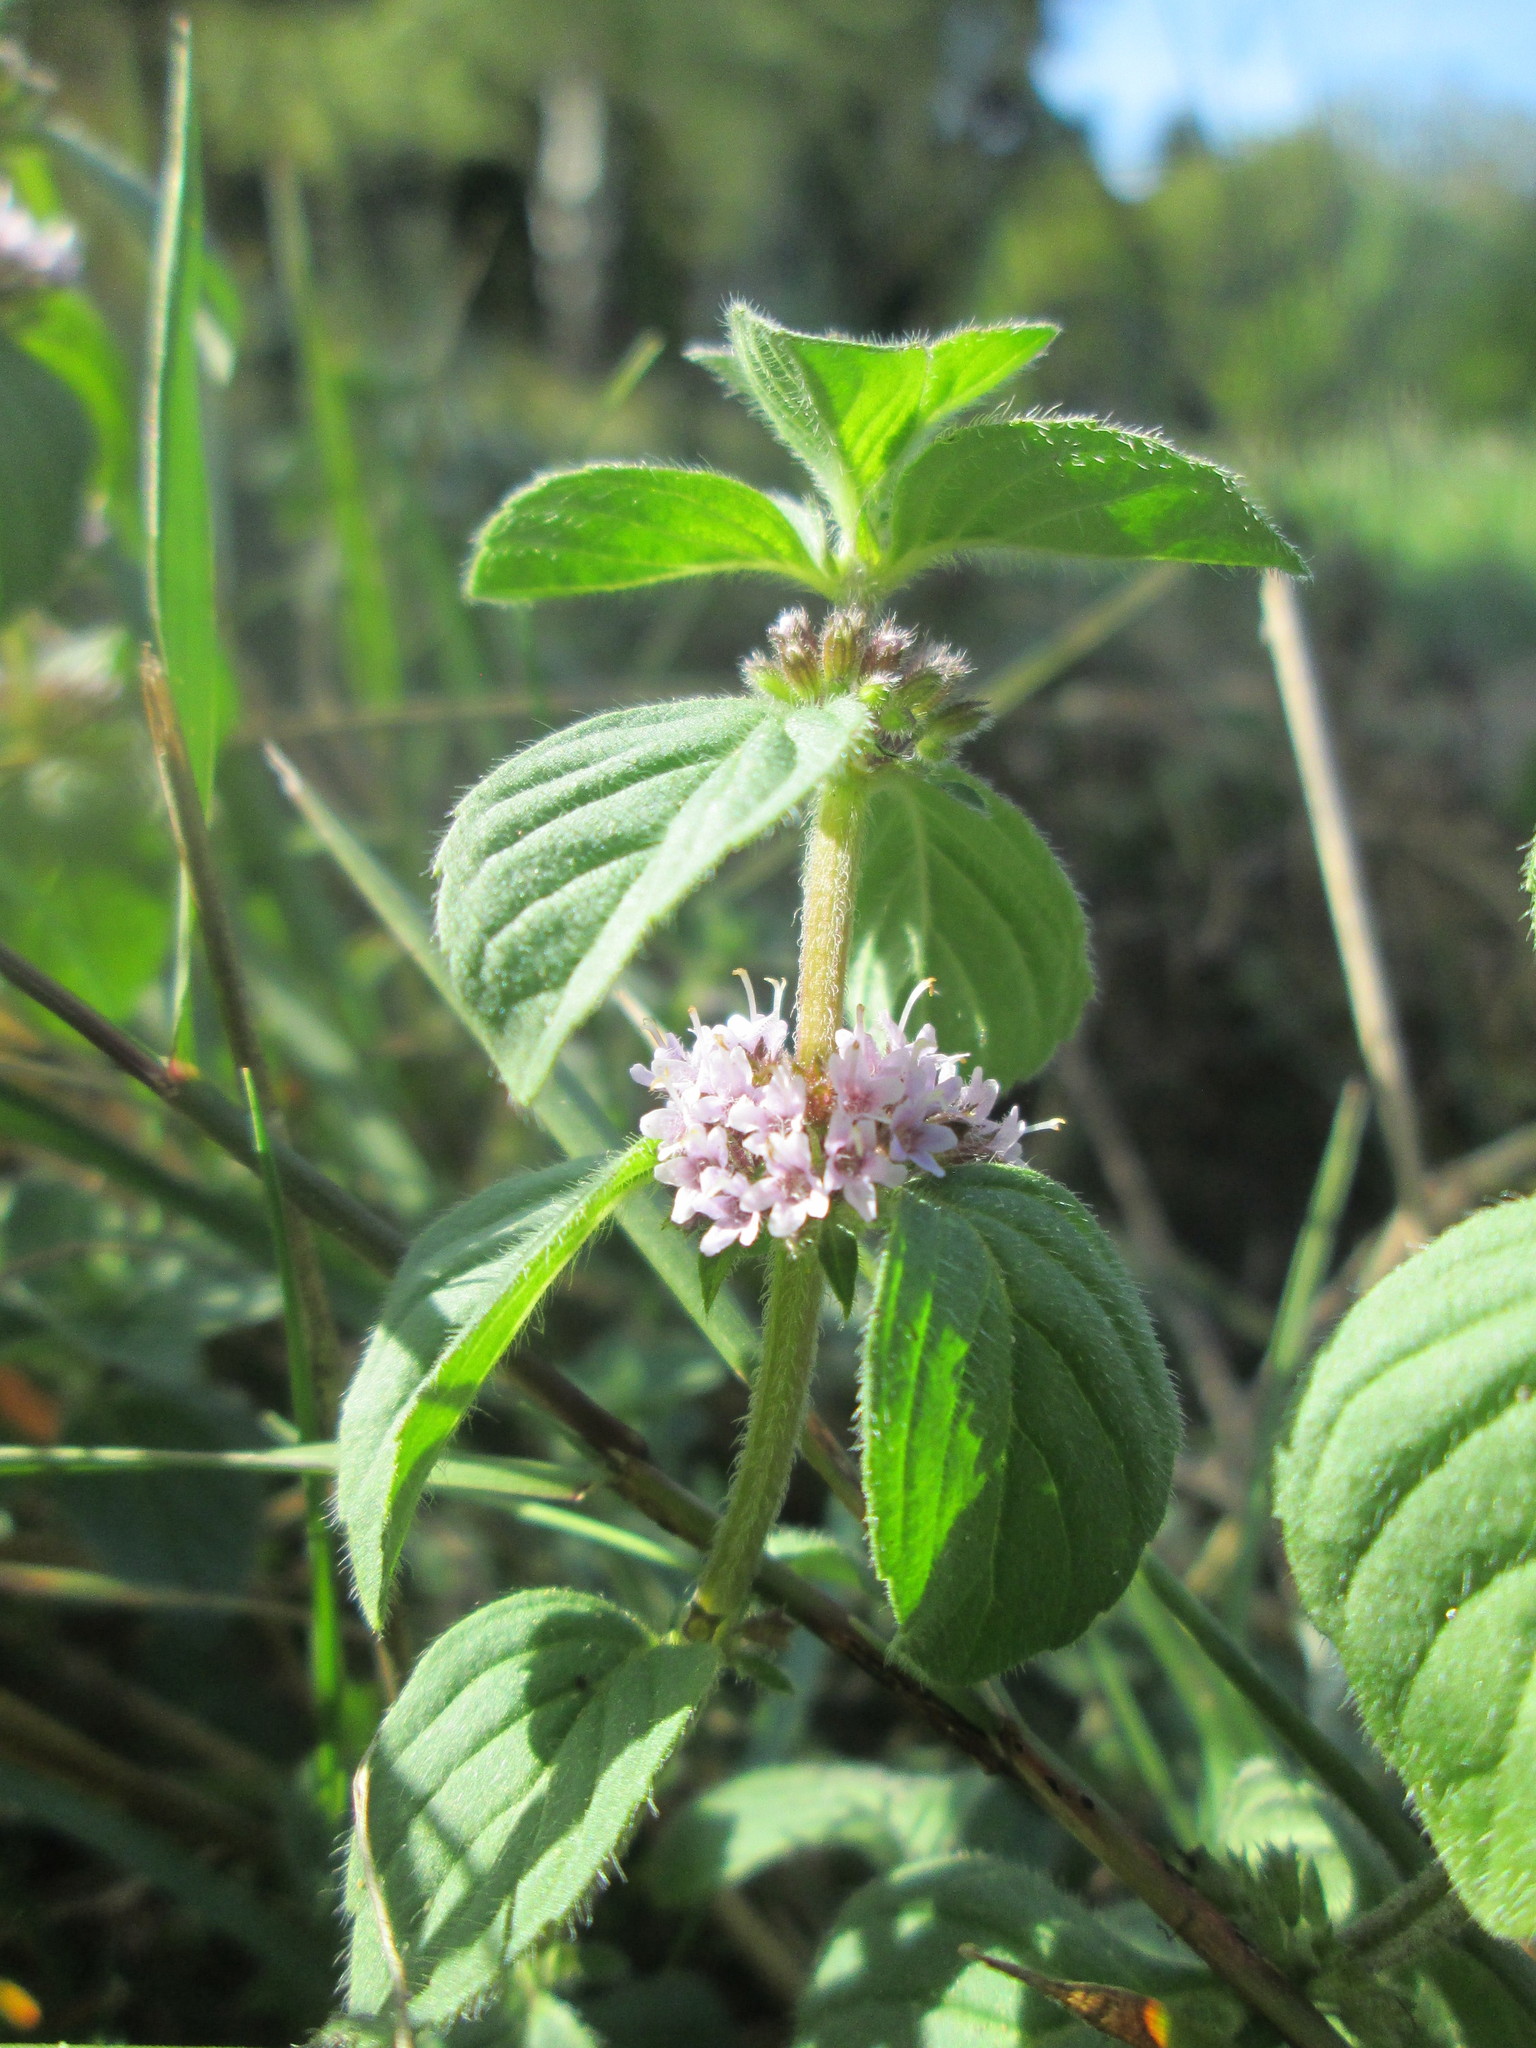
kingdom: Plantae
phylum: Tracheophyta
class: Magnoliopsida
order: Lamiales
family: Lamiaceae
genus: Mentha
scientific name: Mentha arvensis
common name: Corn mint
